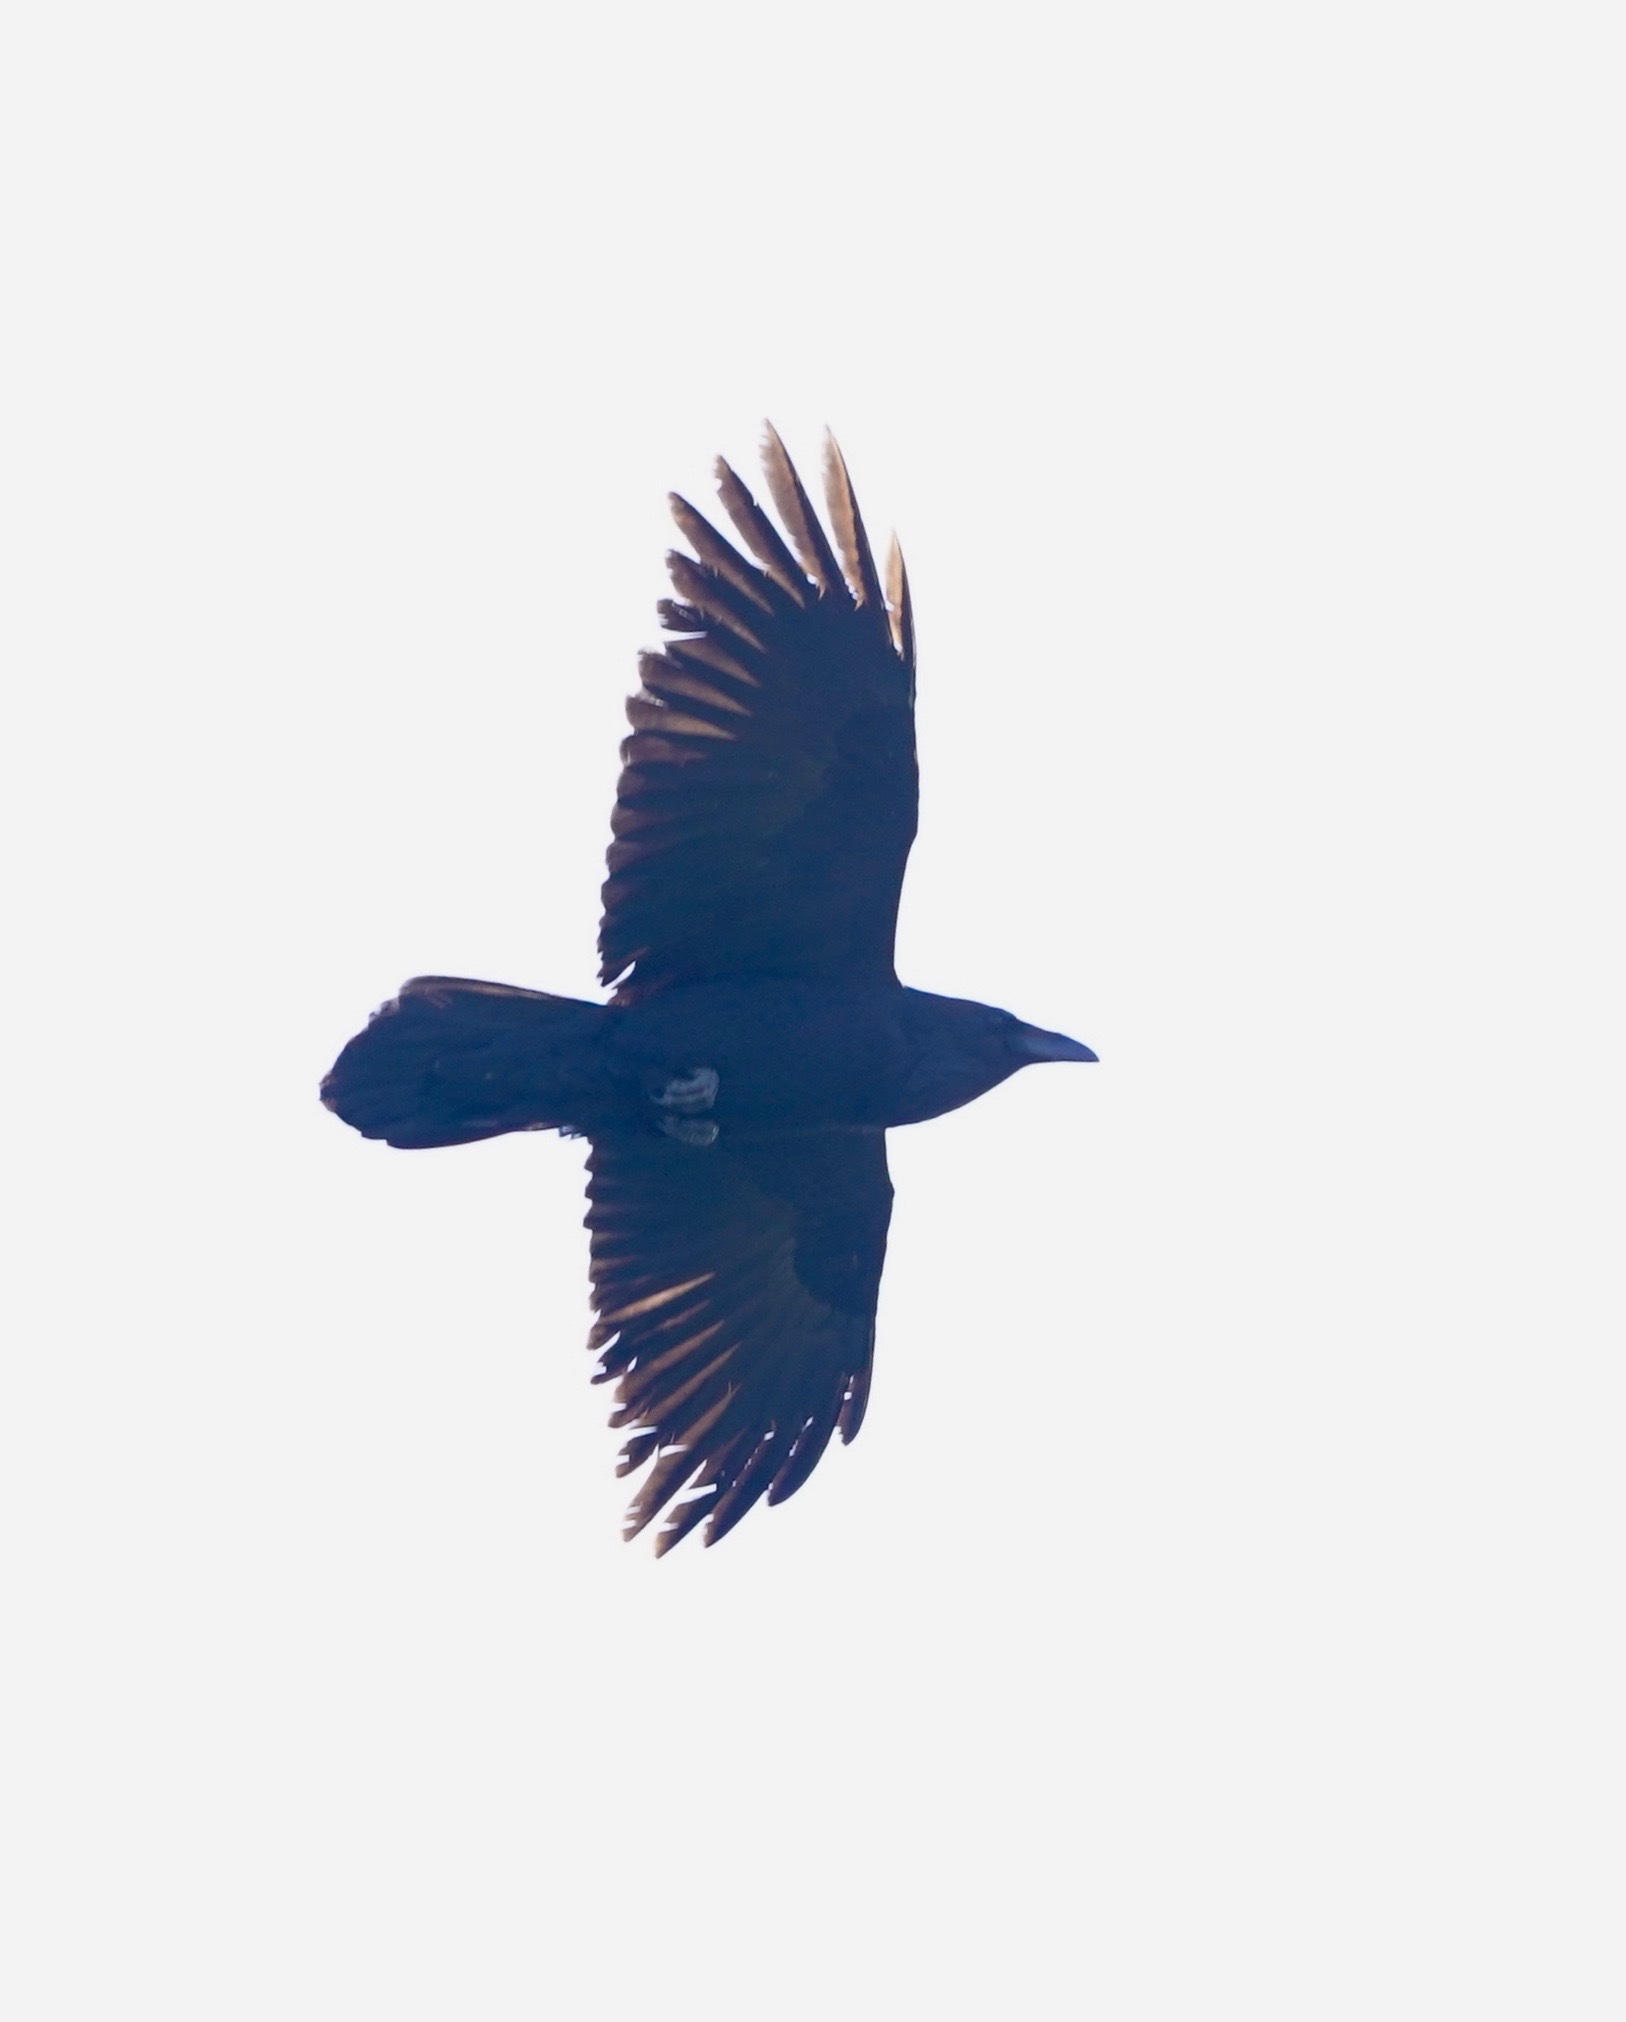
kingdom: Animalia
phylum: Chordata
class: Aves
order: Passeriformes
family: Corvidae
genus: Corvus
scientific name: Corvus corax
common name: Common raven
